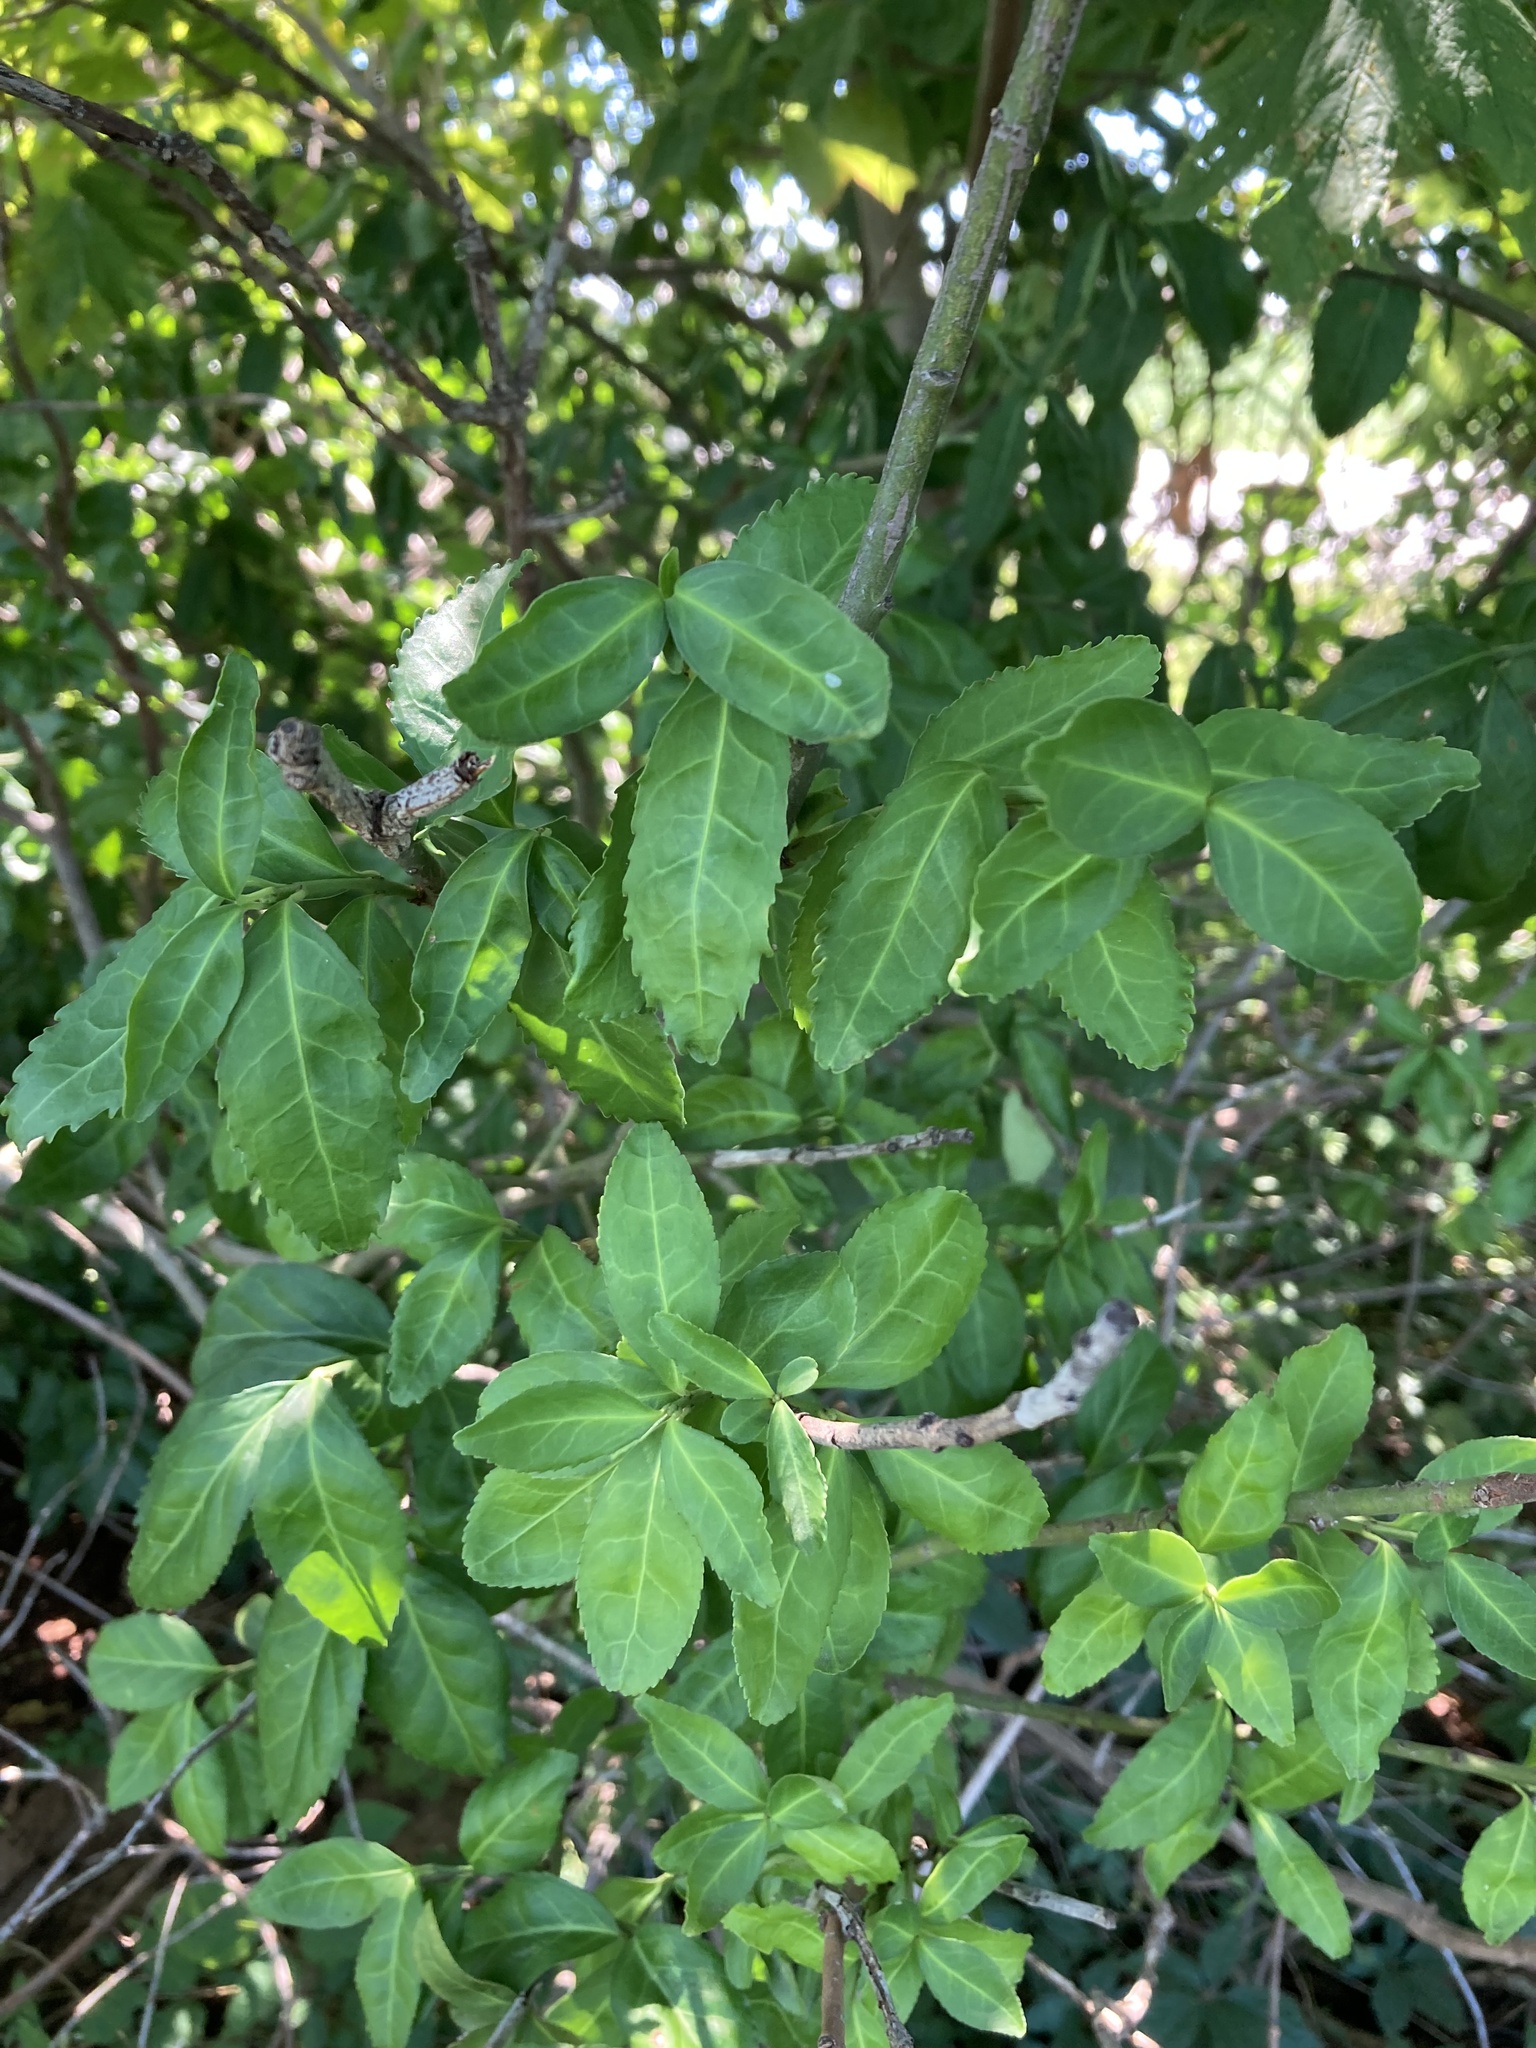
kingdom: Plantae
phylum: Tracheophyta
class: Magnoliopsida
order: Celastrales
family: Celastraceae
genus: Euonymus
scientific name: Euonymus fortunei
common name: Climbing euonymus
